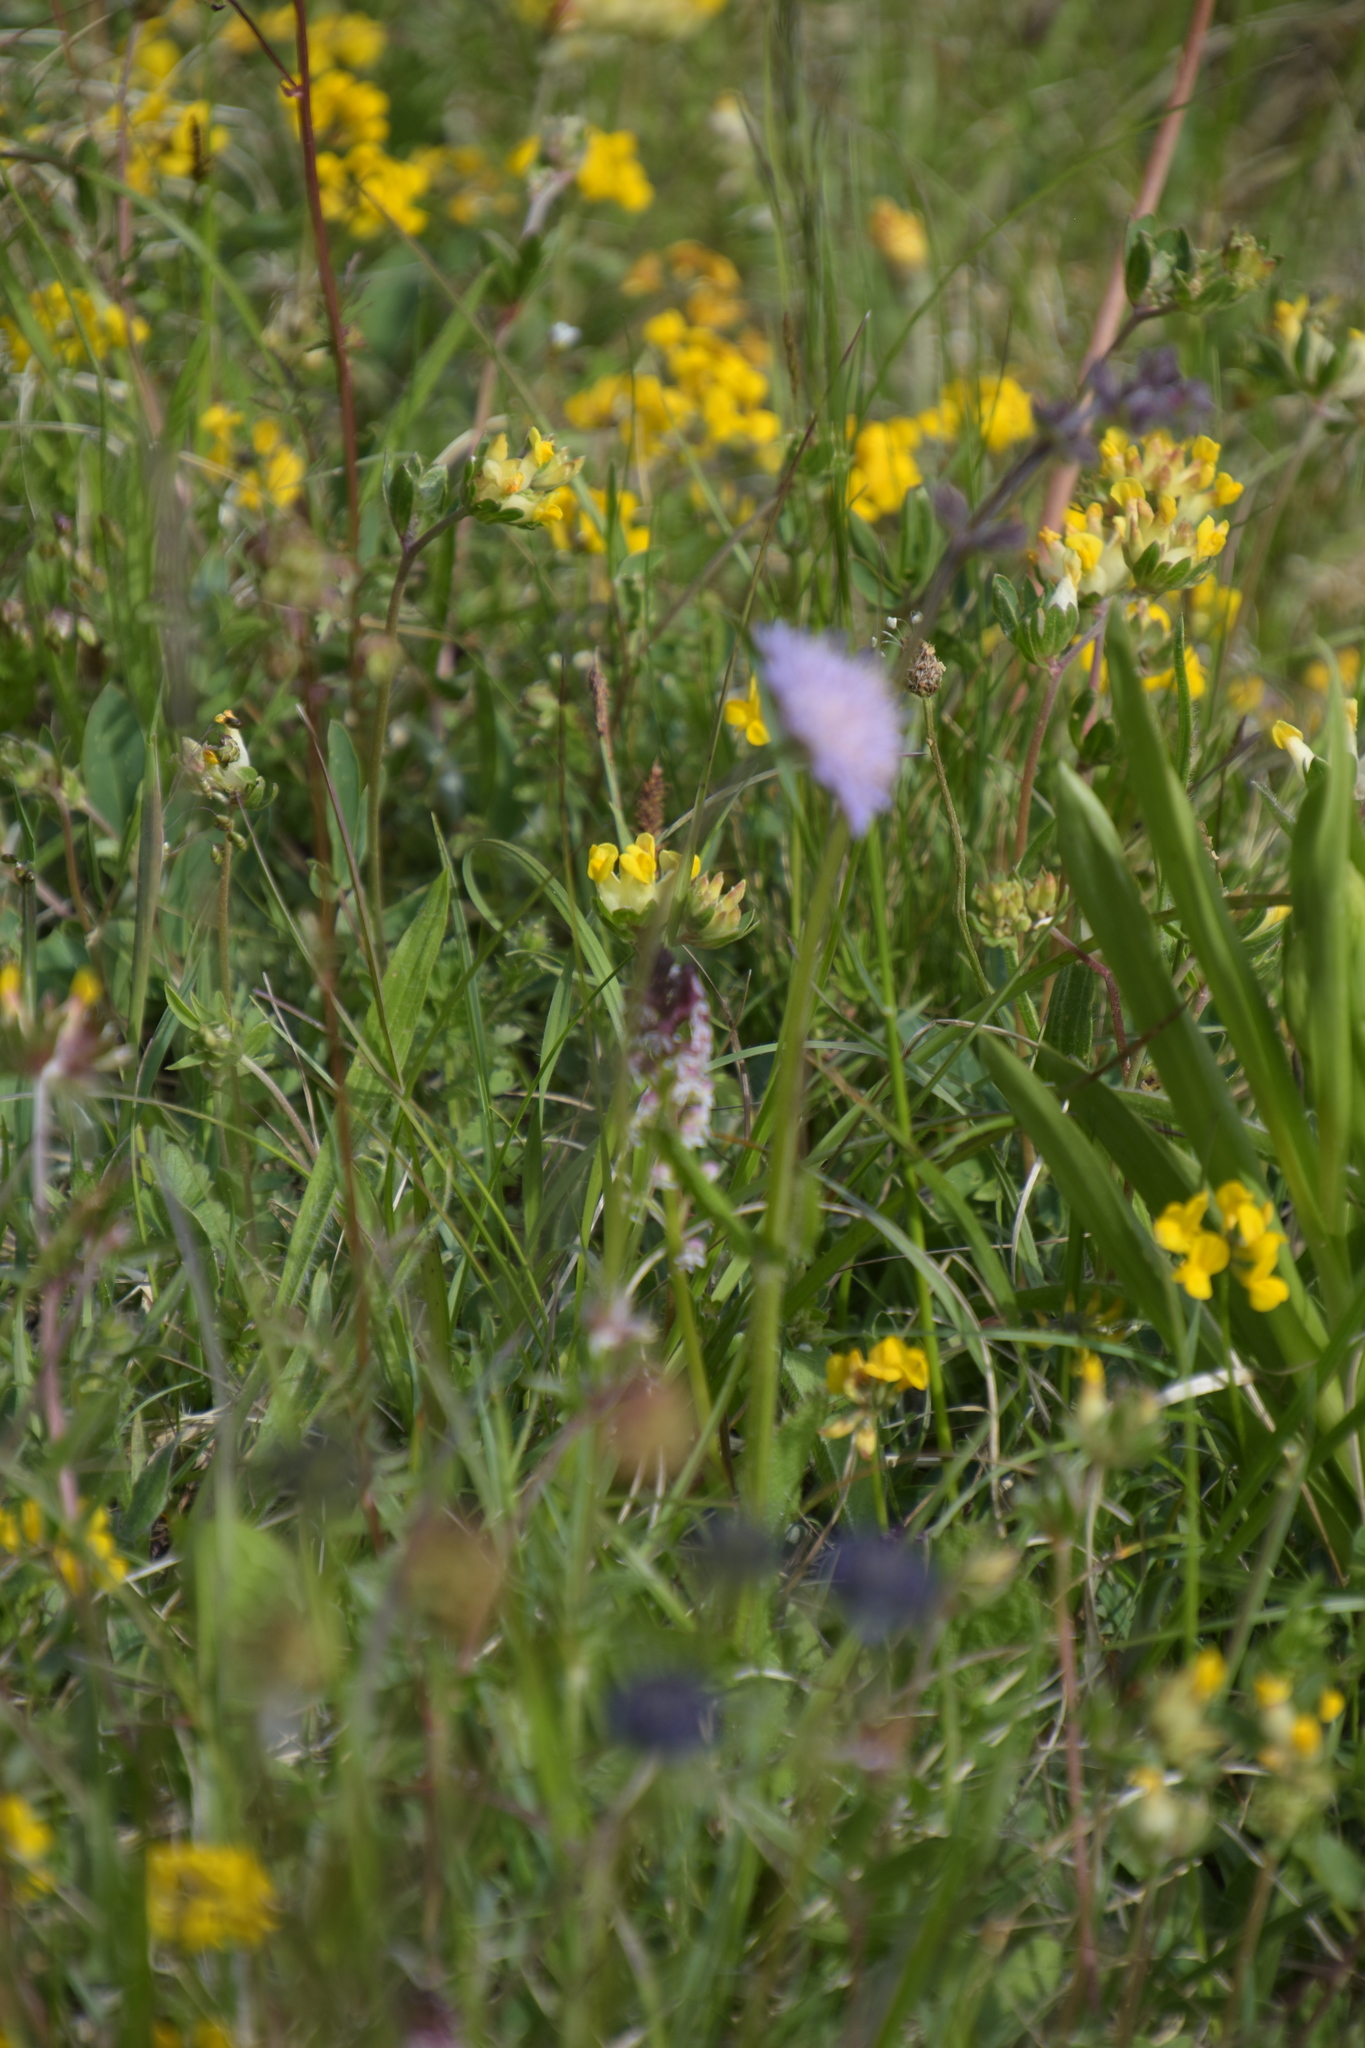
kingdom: Plantae
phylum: Tracheophyta
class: Liliopsida
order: Asparagales
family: Orchidaceae
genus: Neotinea
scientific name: Neotinea ustulata
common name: Burnt orchid
